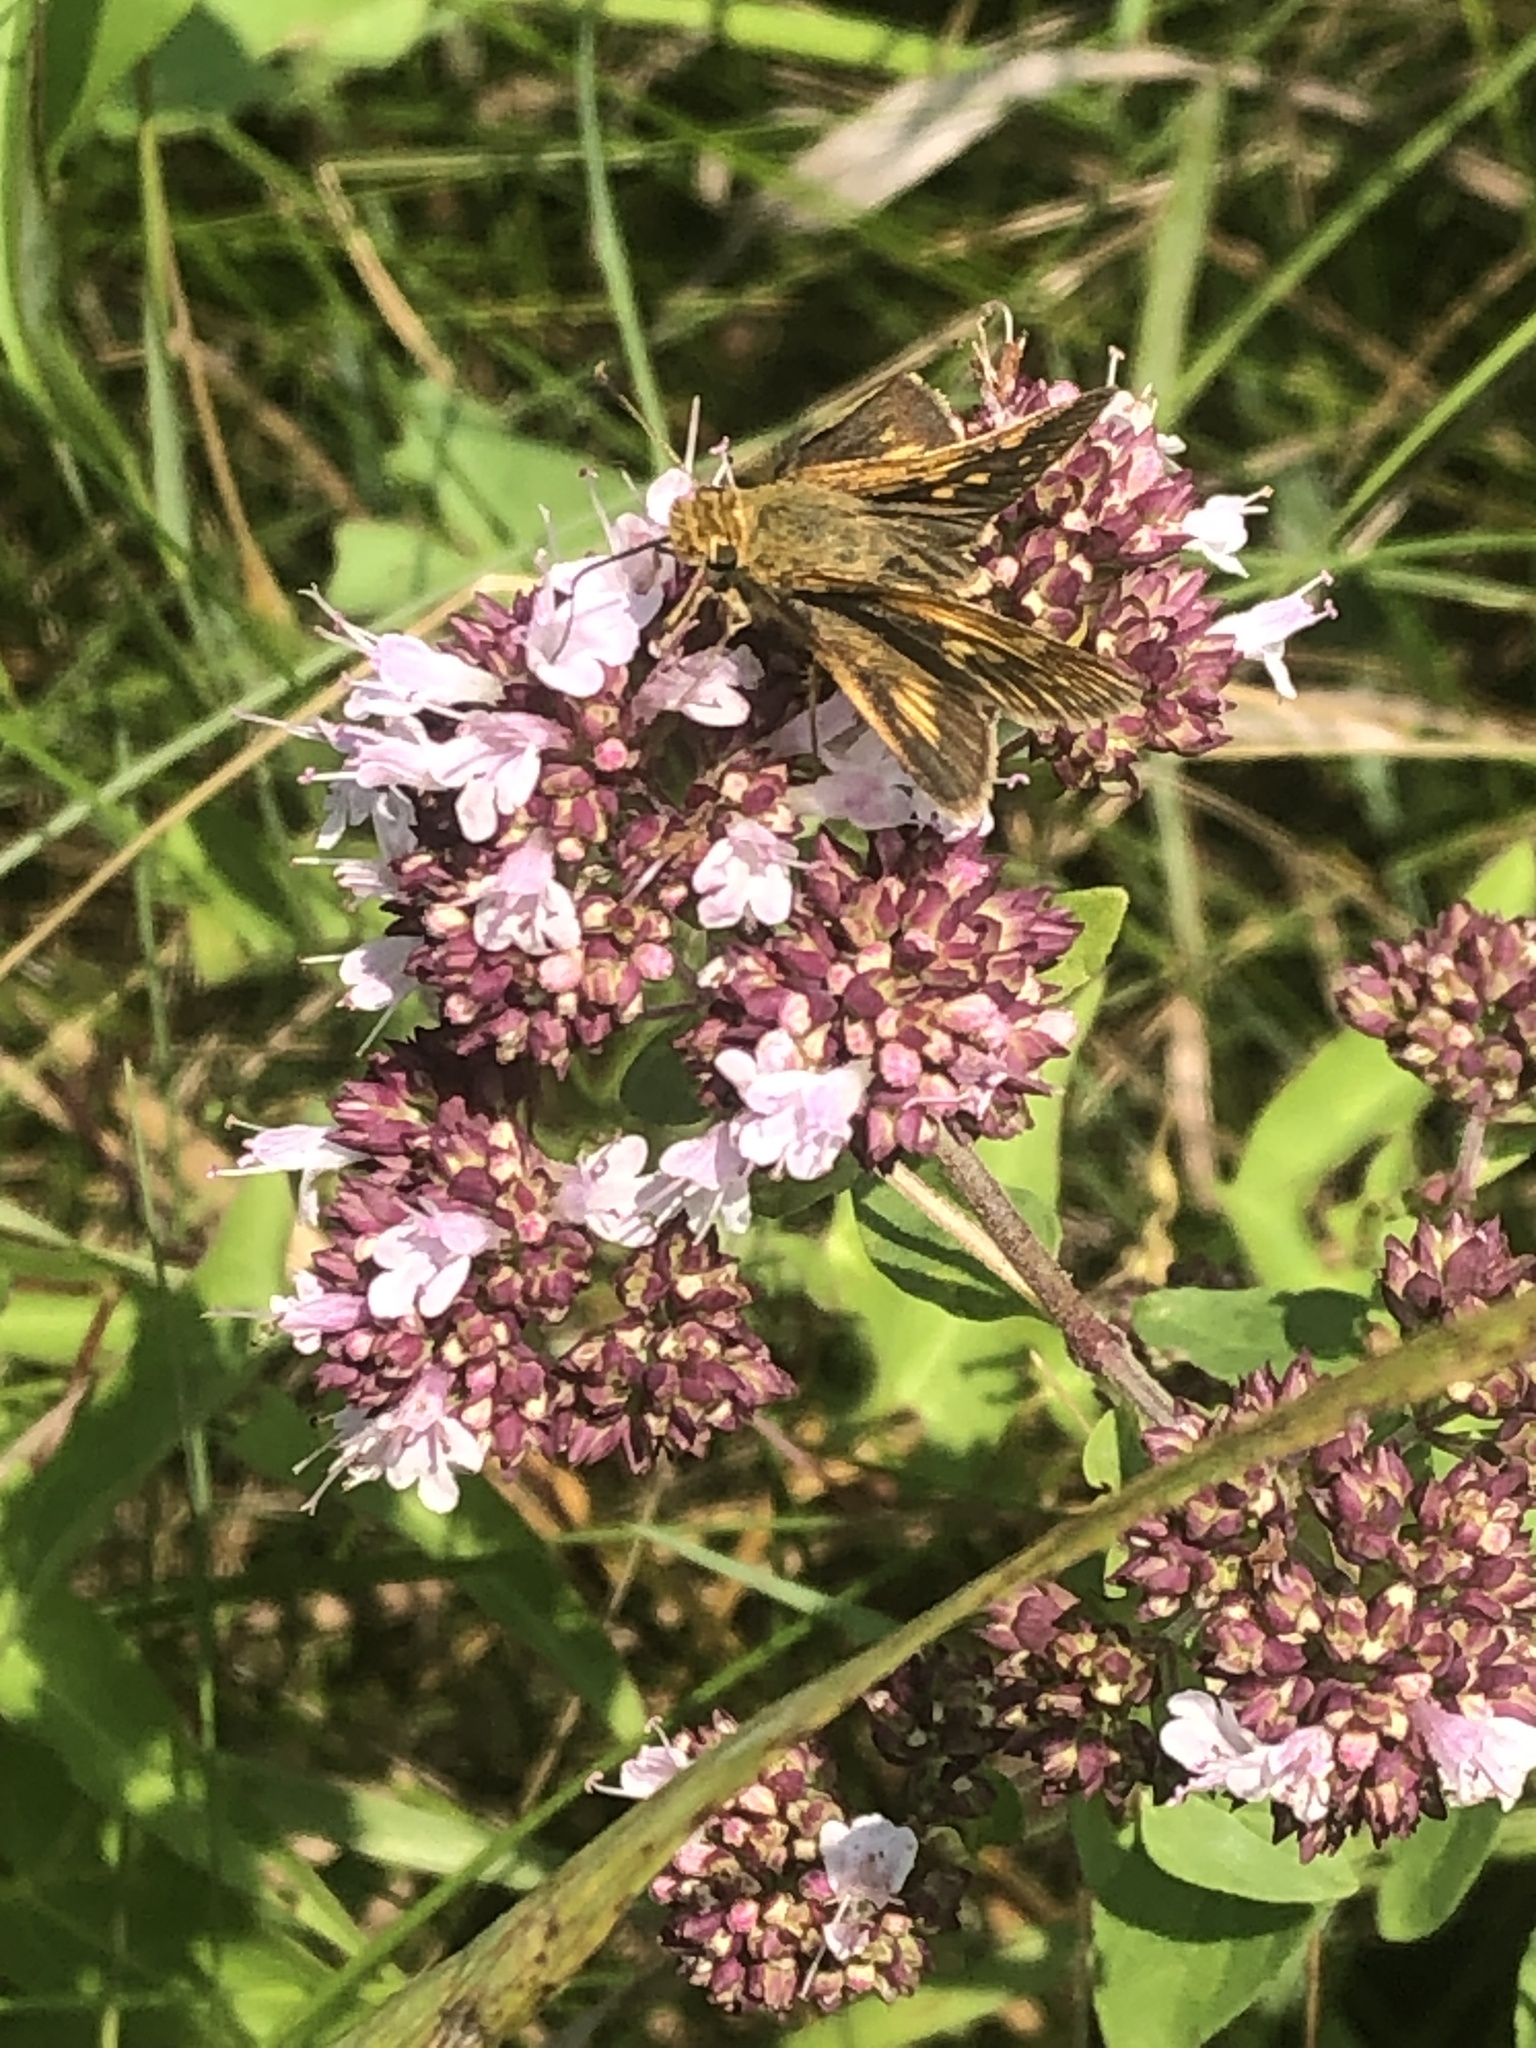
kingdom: Animalia
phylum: Arthropoda
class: Insecta
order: Lepidoptera
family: Hesperiidae
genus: Polites
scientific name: Polites coras
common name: Peck's skipper
